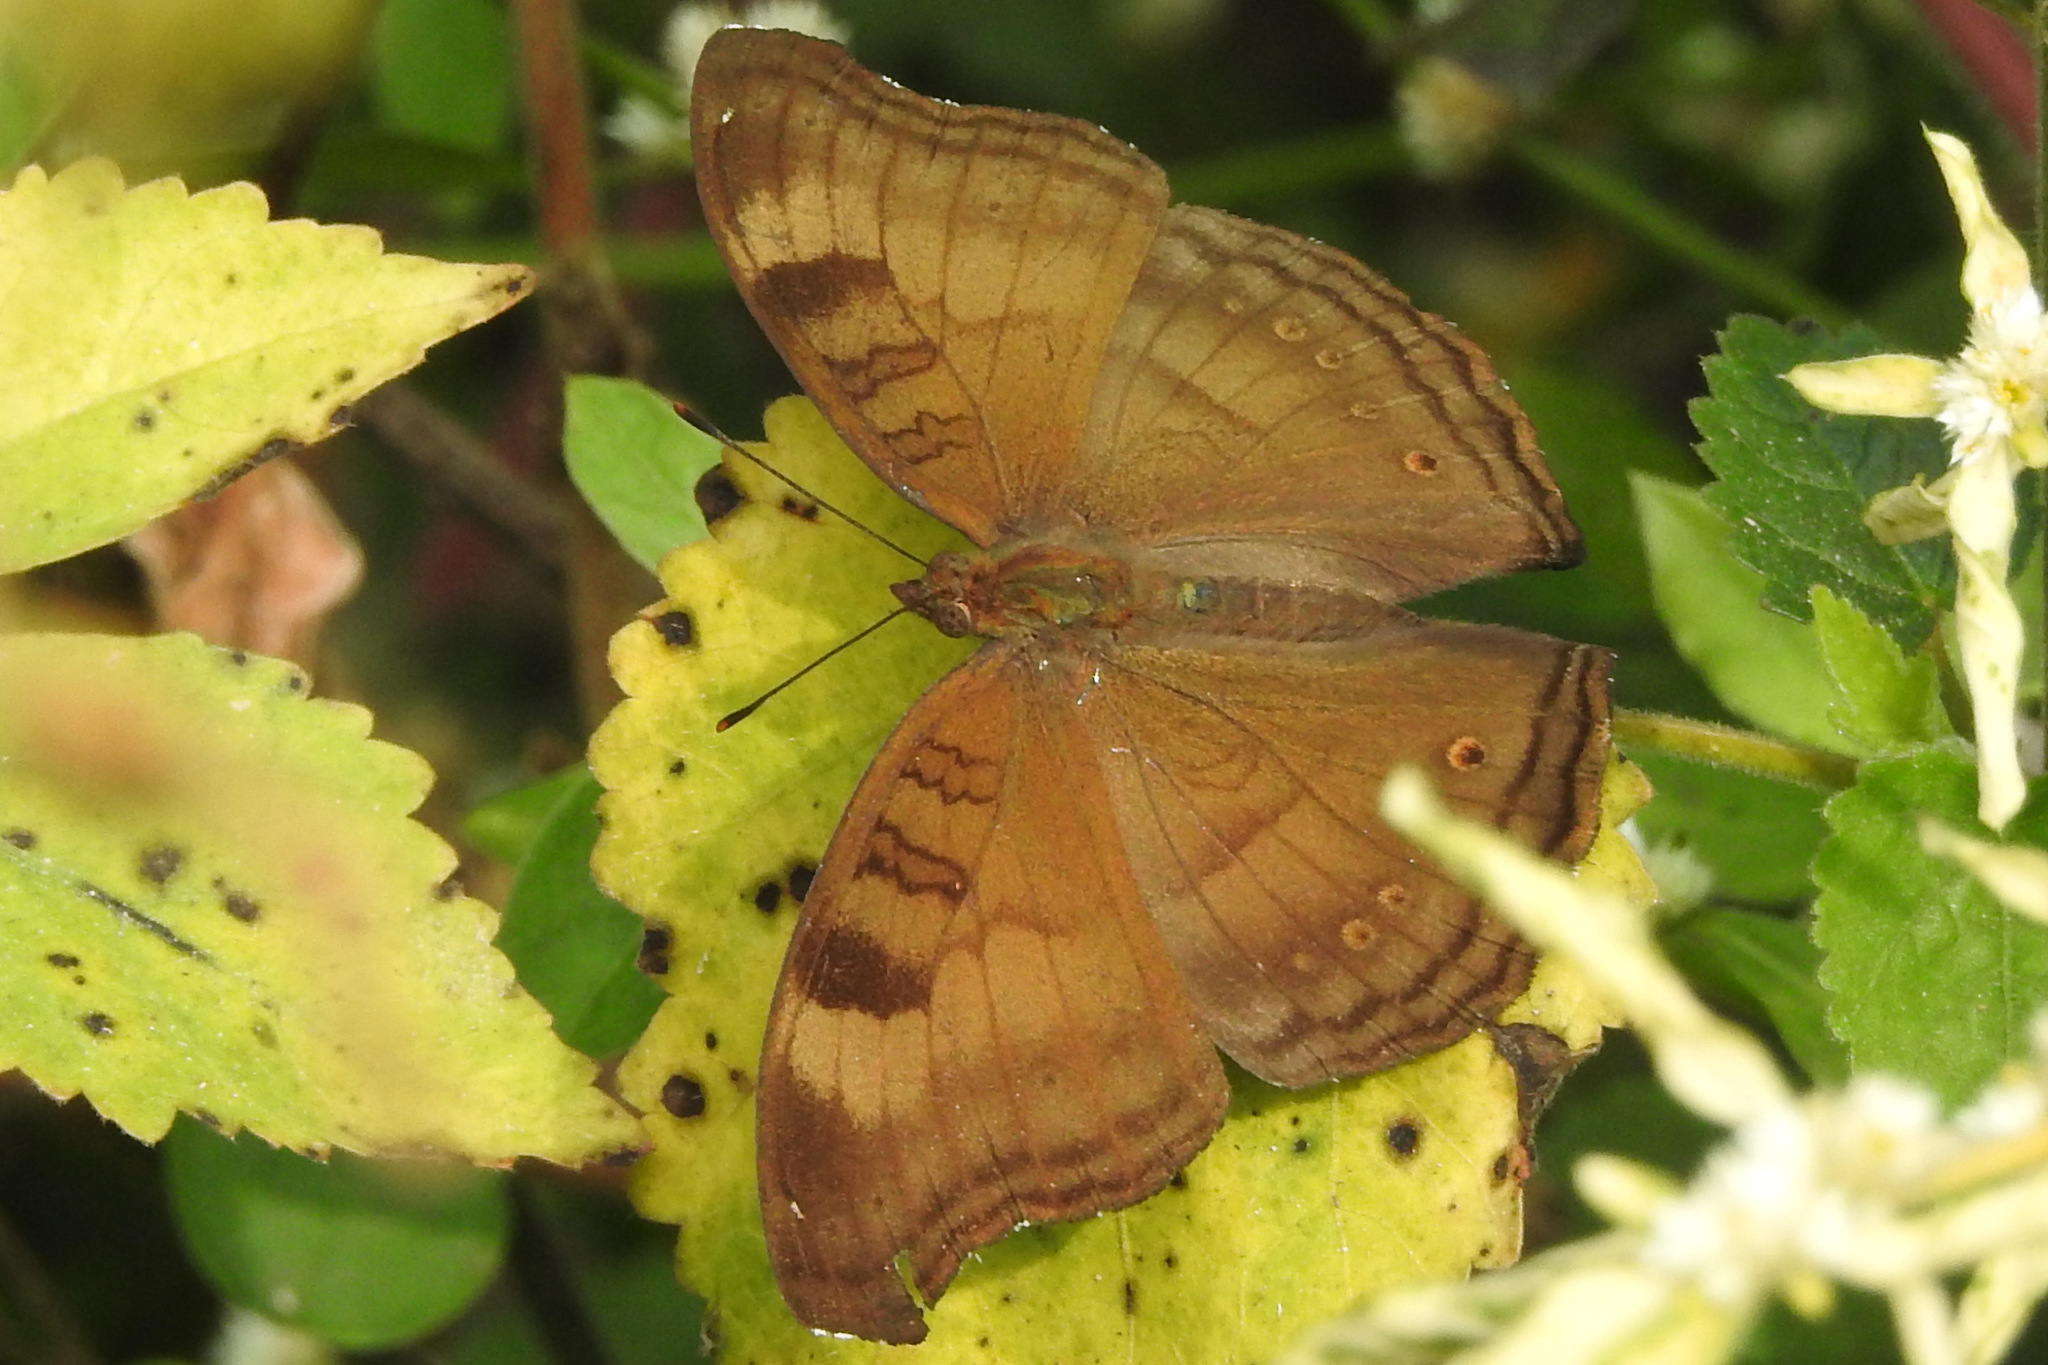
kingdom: Animalia
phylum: Arthropoda
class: Insecta
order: Lepidoptera
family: Nymphalidae
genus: Junonia
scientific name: Junonia iphita
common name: Chocolate pansy
